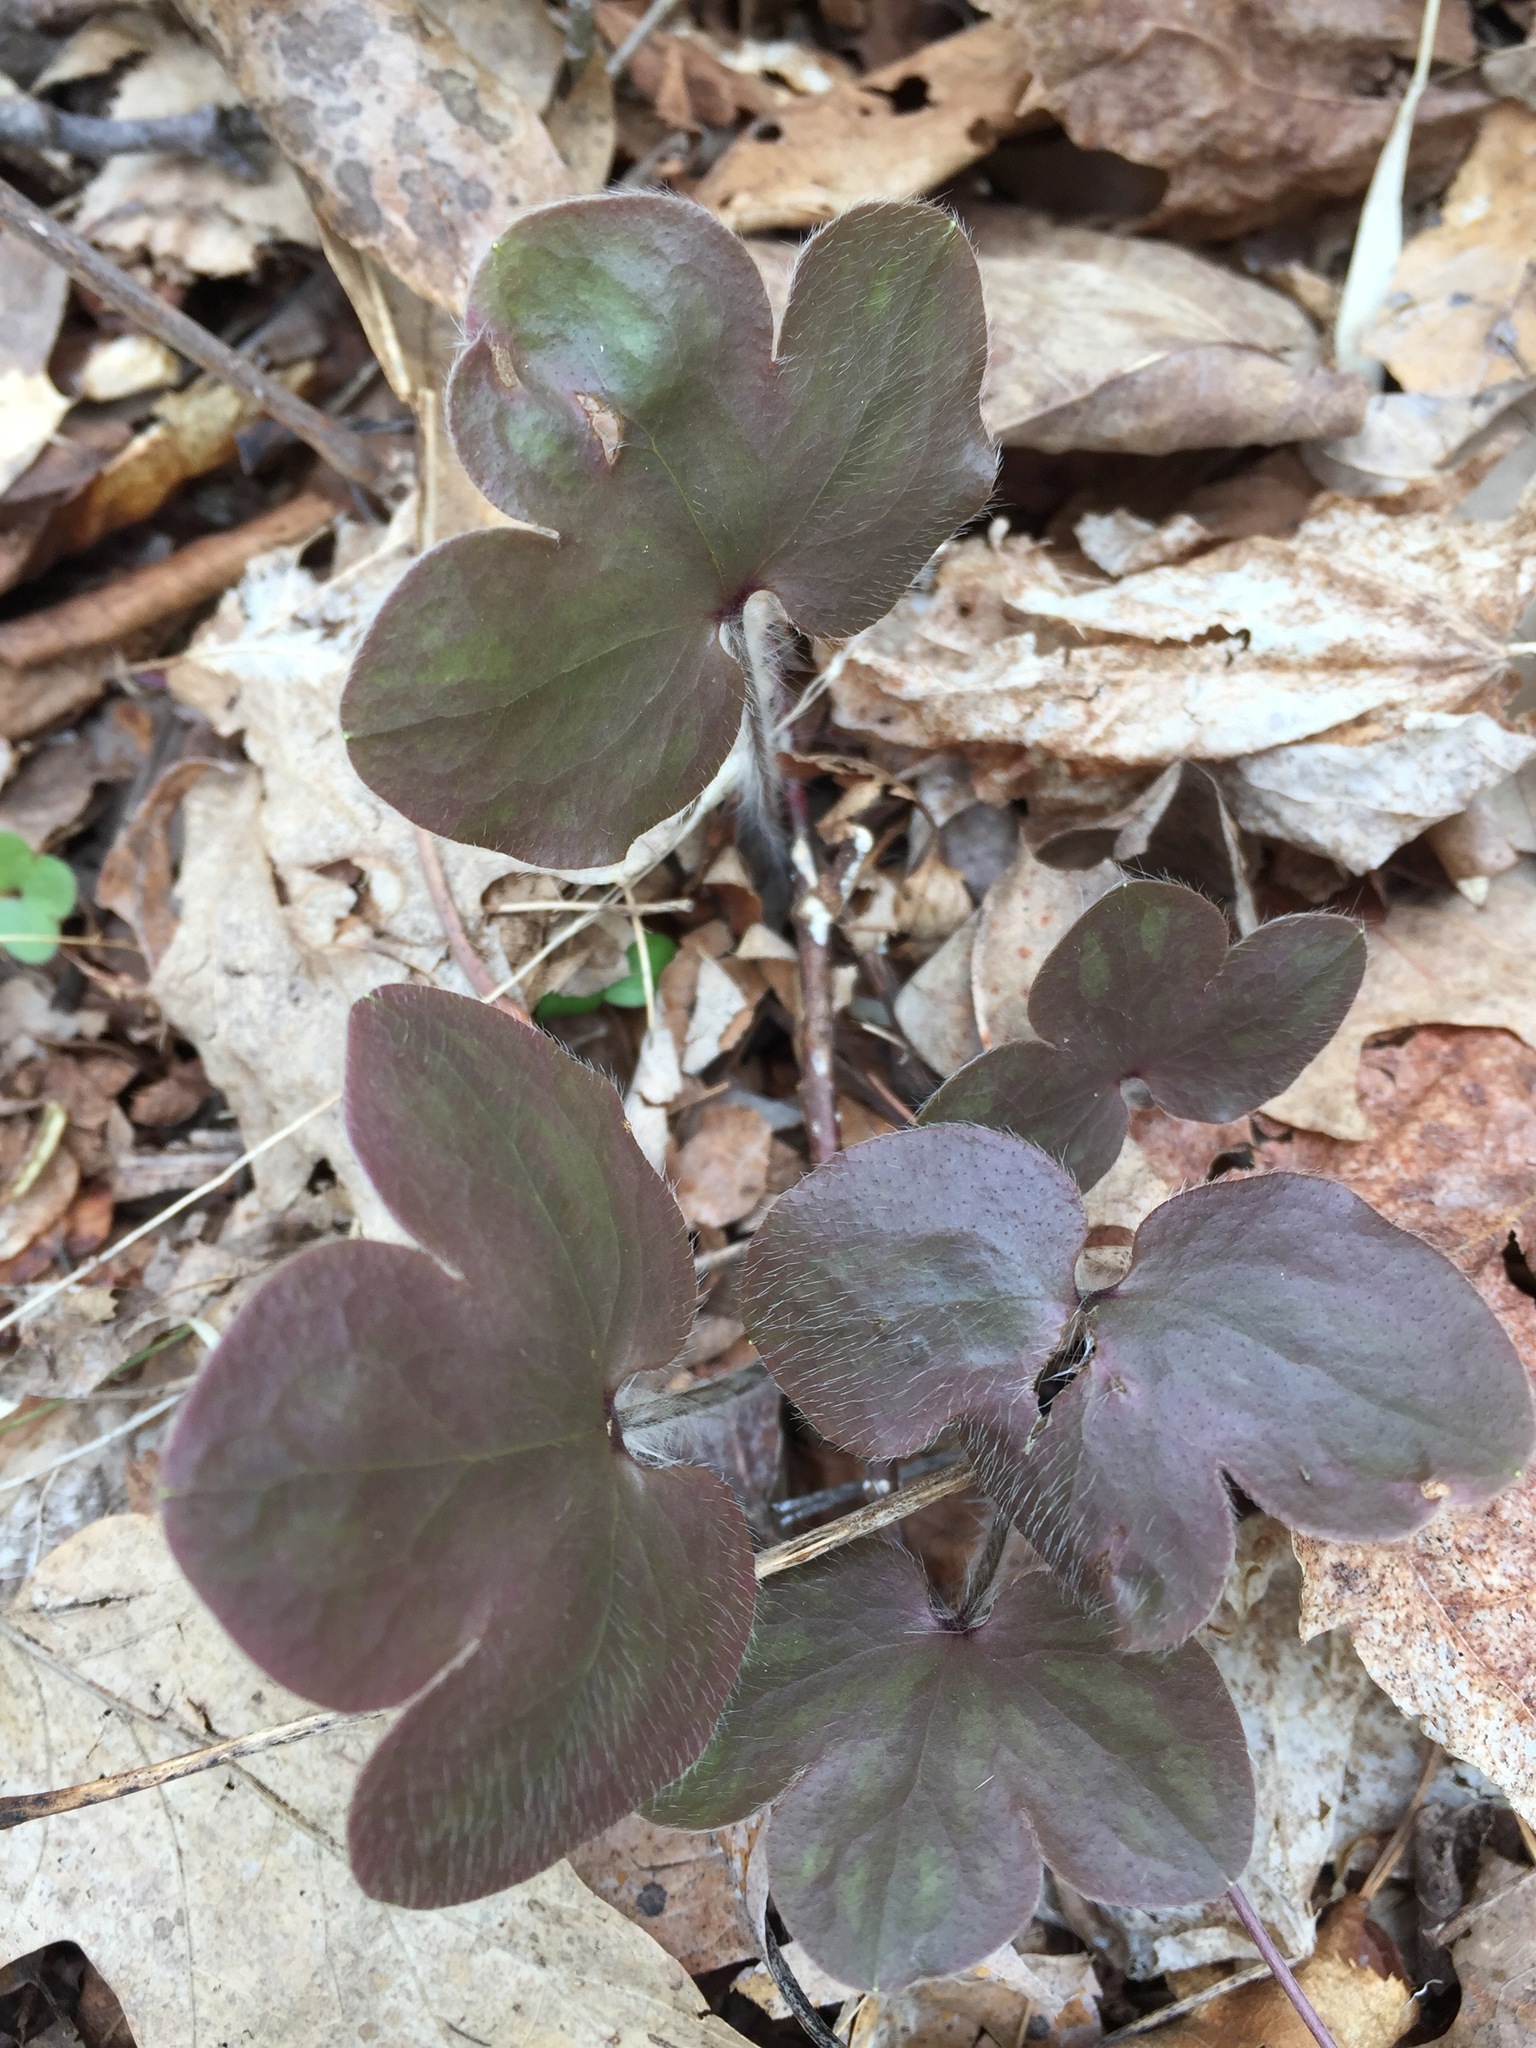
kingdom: Plantae
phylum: Tracheophyta
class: Magnoliopsida
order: Ranunculales
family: Ranunculaceae
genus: Hepatica
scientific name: Hepatica americana
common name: American hepatica
